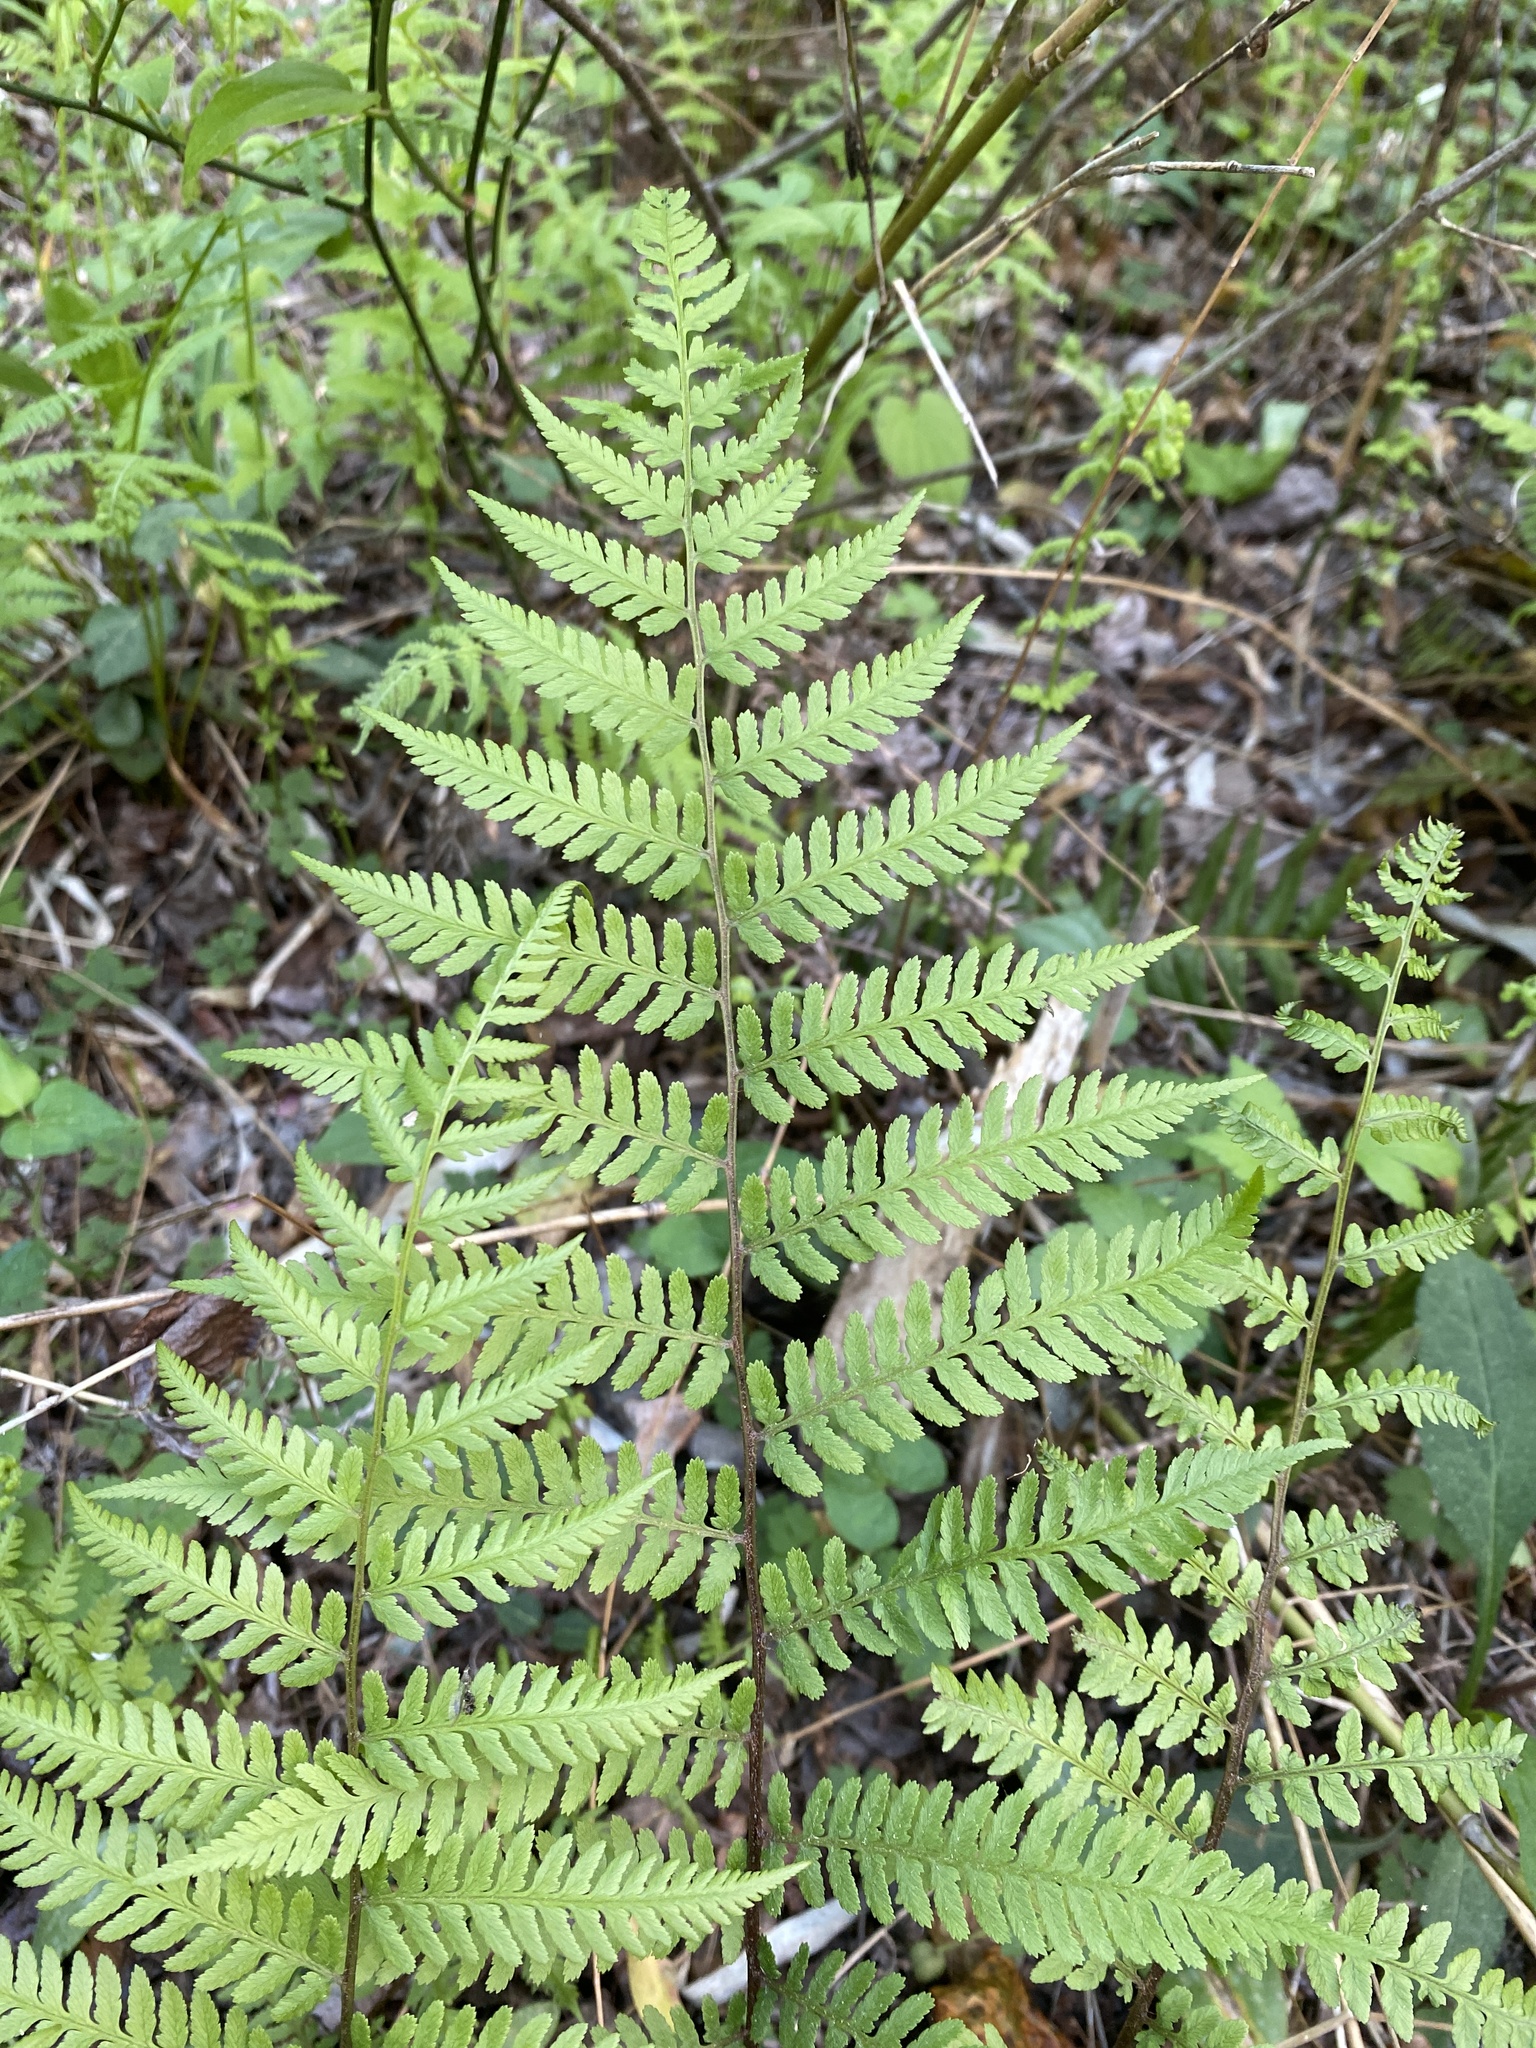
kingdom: Plantae
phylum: Tracheophyta
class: Polypodiopsida
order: Polypodiales
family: Athyriaceae
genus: Athyrium
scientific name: Athyrium asplenioides
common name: Southern lady fern
